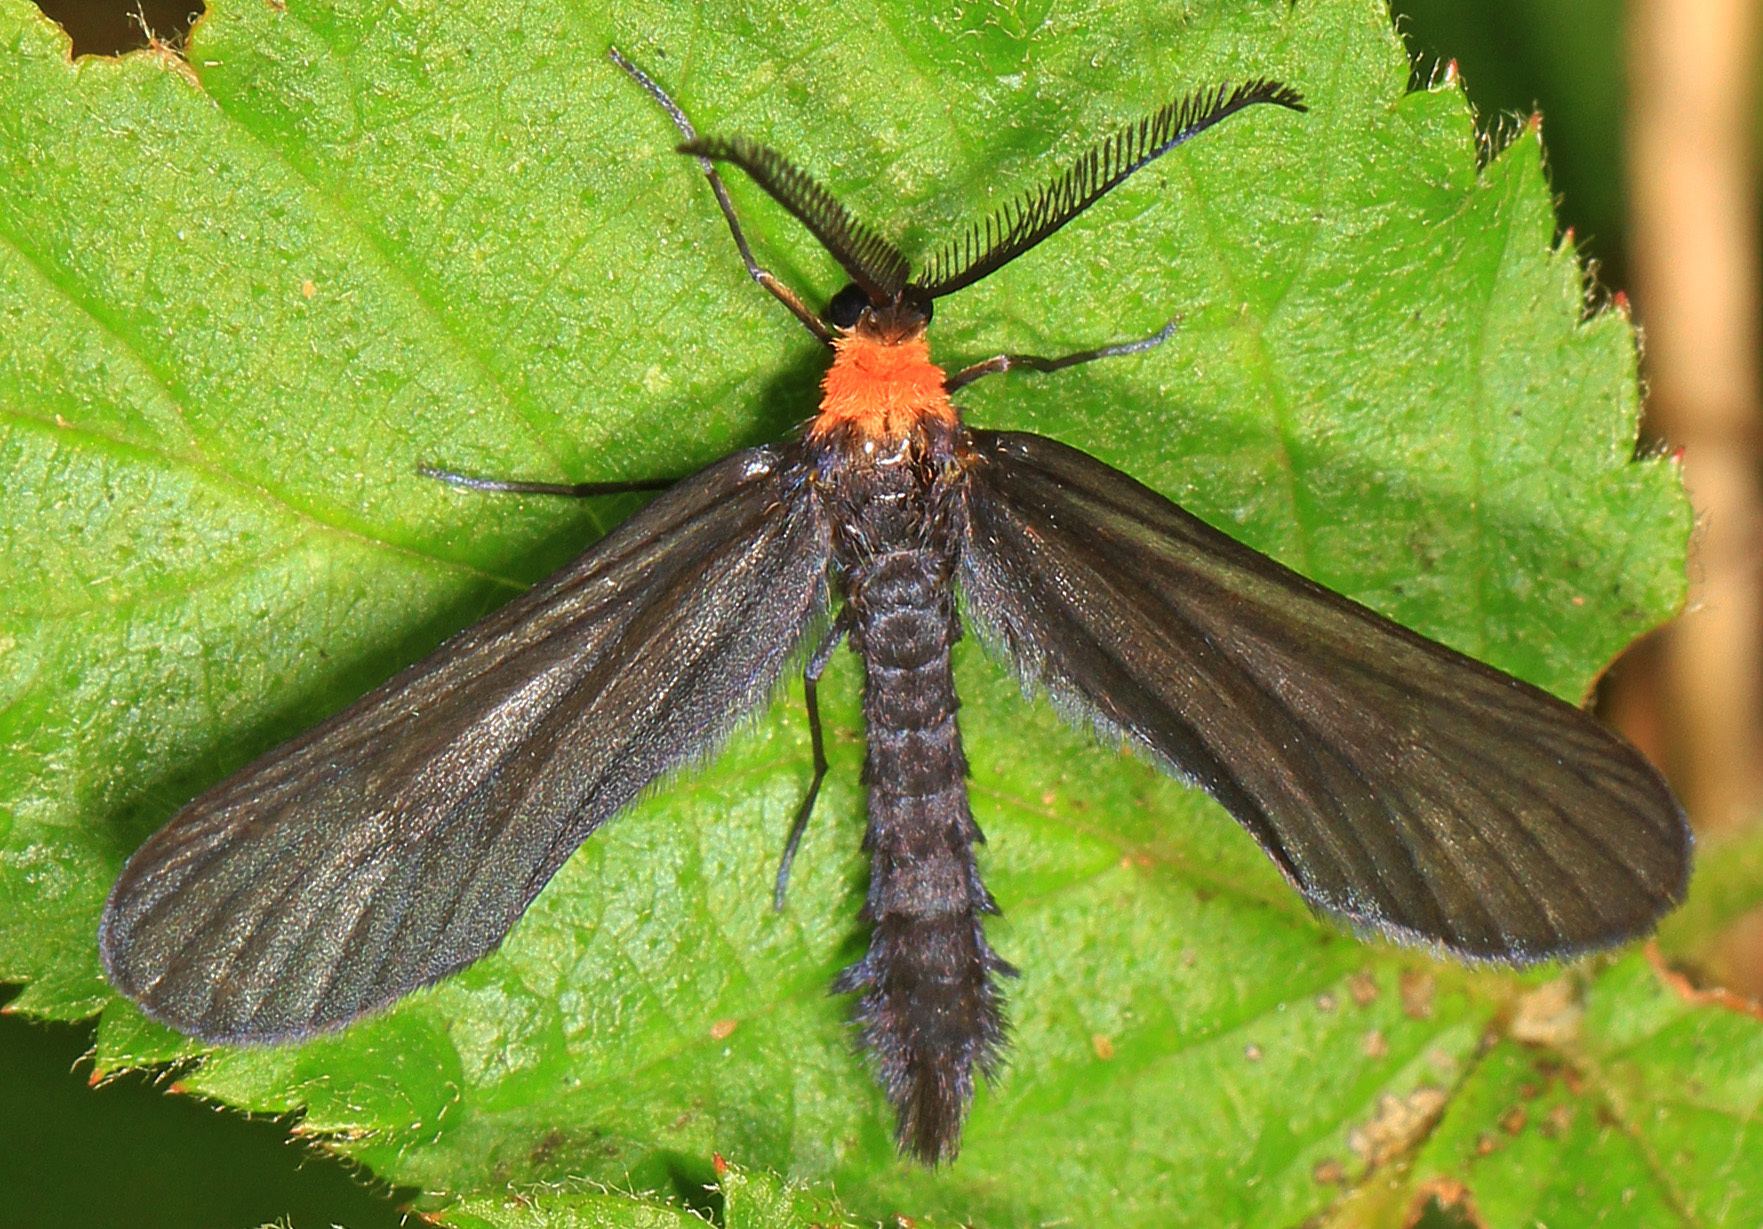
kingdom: Animalia
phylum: Arthropoda
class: Insecta
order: Lepidoptera
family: Zygaenidae
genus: Harrisina
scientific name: Harrisina americana
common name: Grapeleaf skeletonizer moth
